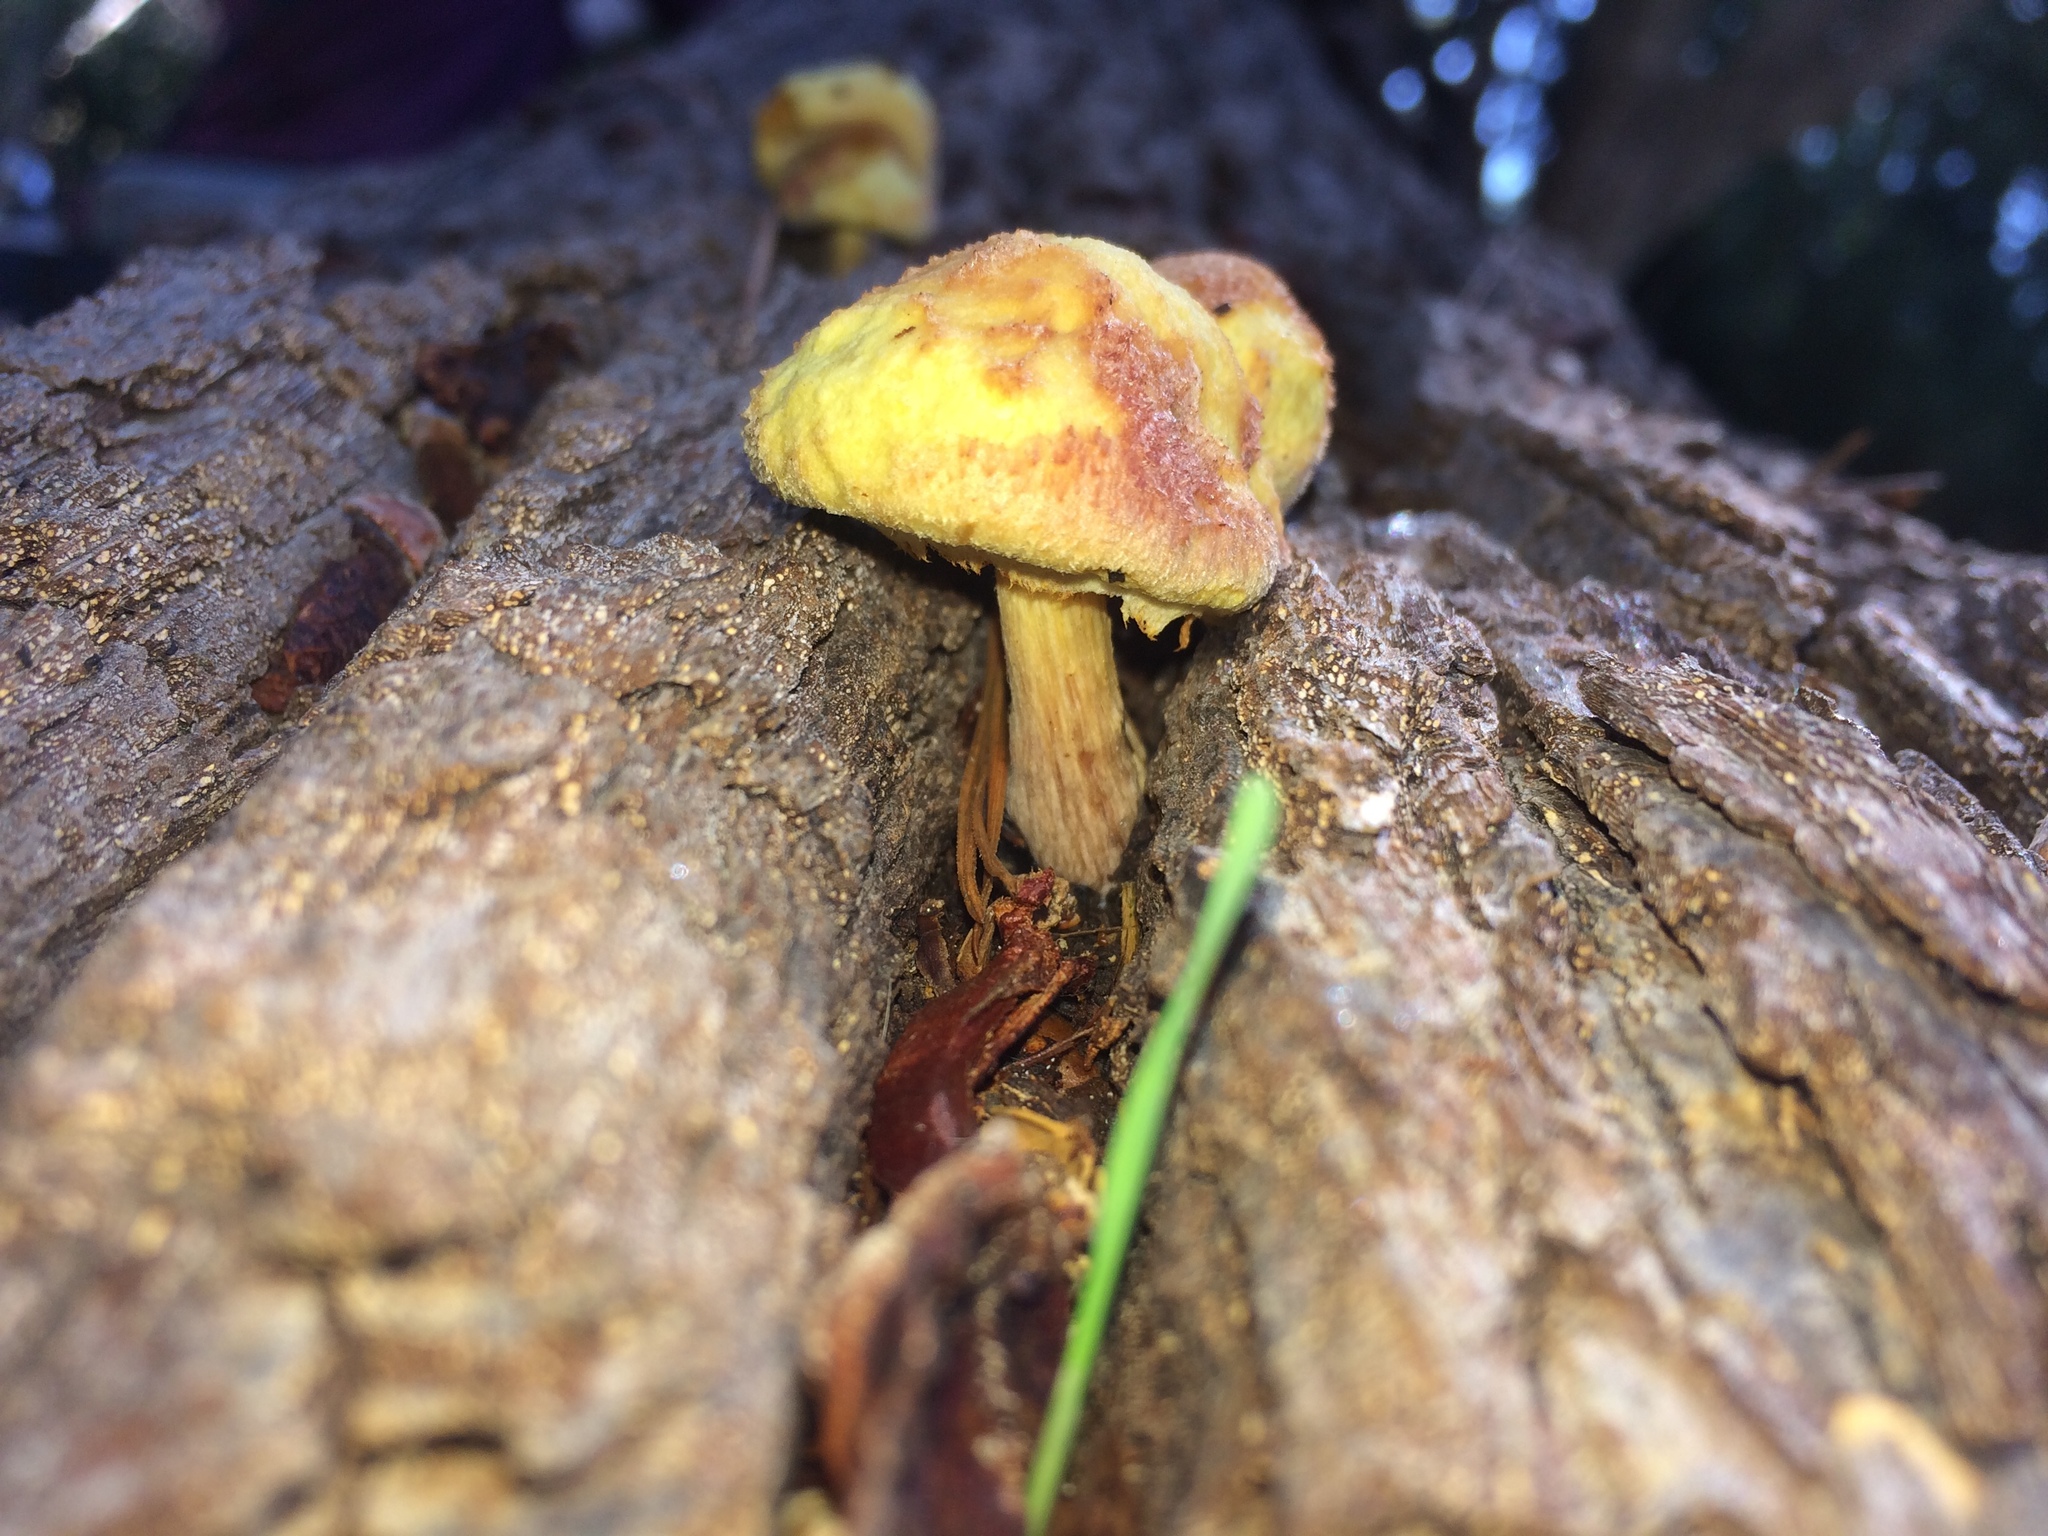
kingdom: Fungi
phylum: Basidiomycota
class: Agaricomycetes
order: Agaricales
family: Tricholomataceae
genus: Tricholomopsis
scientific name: Tricholomopsis rutilans
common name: Plums and custard
